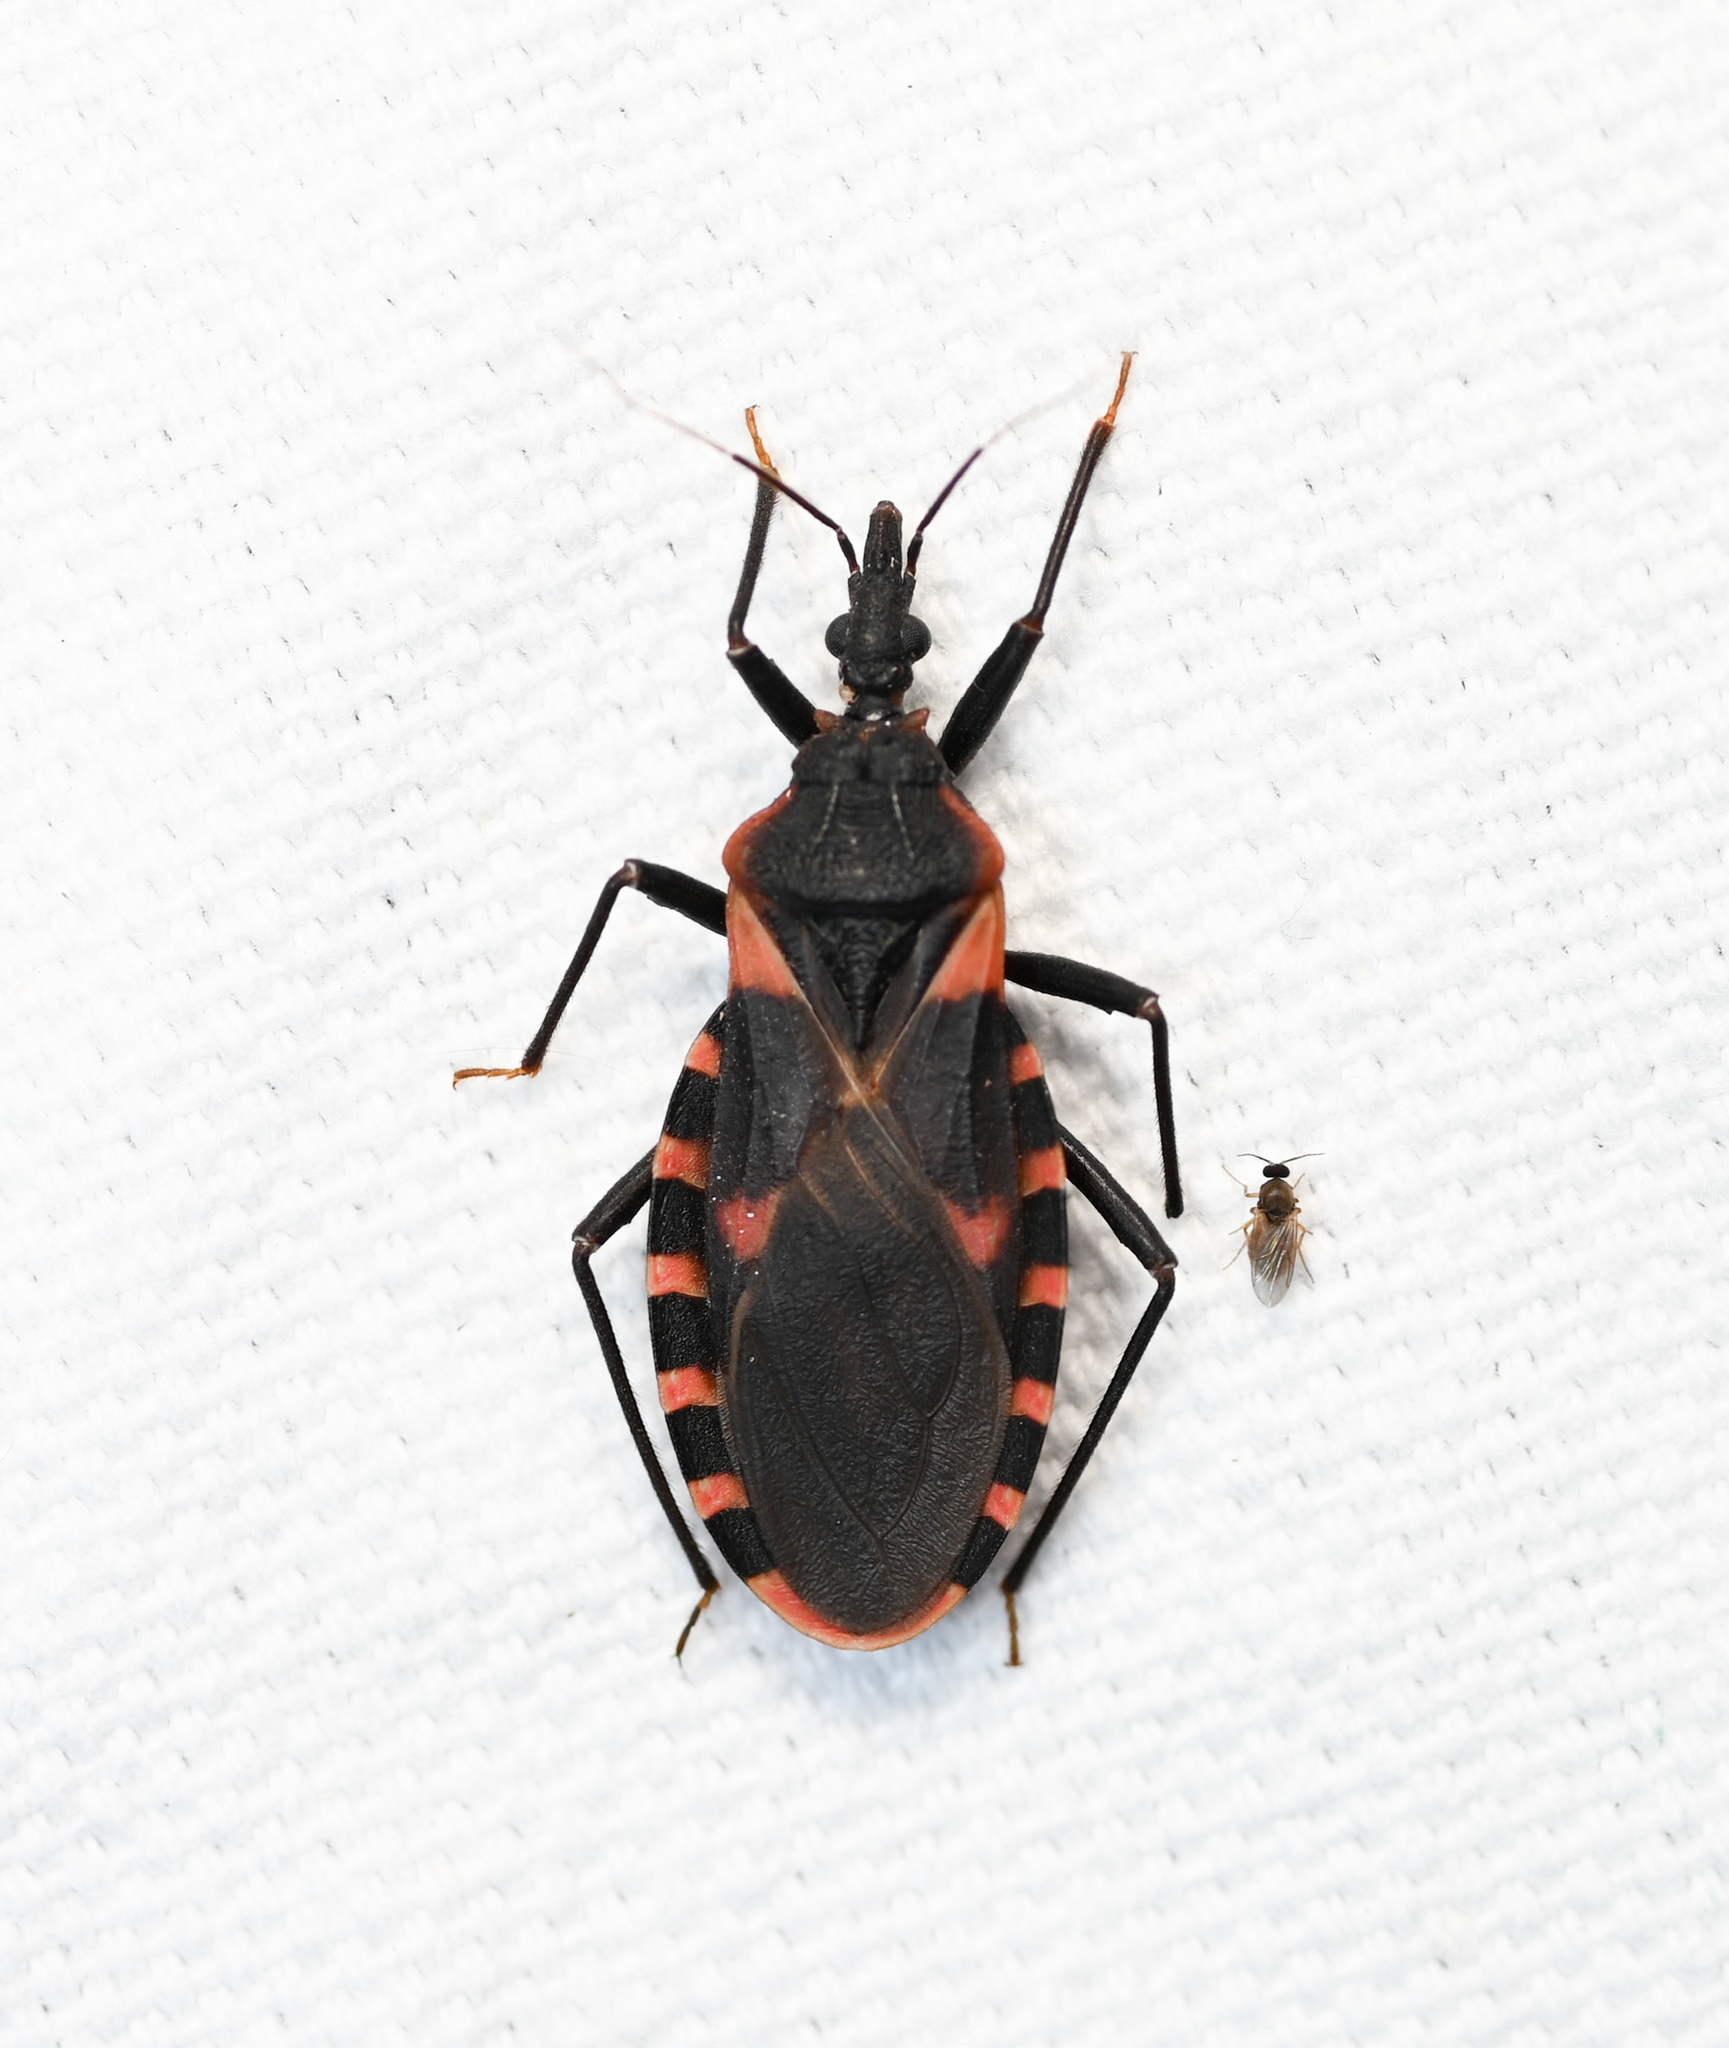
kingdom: Animalia
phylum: Arthropoda
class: Insecta
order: Hemiptera
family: Reduviidae
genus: Triatoma
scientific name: Triatoma sanguisuga
